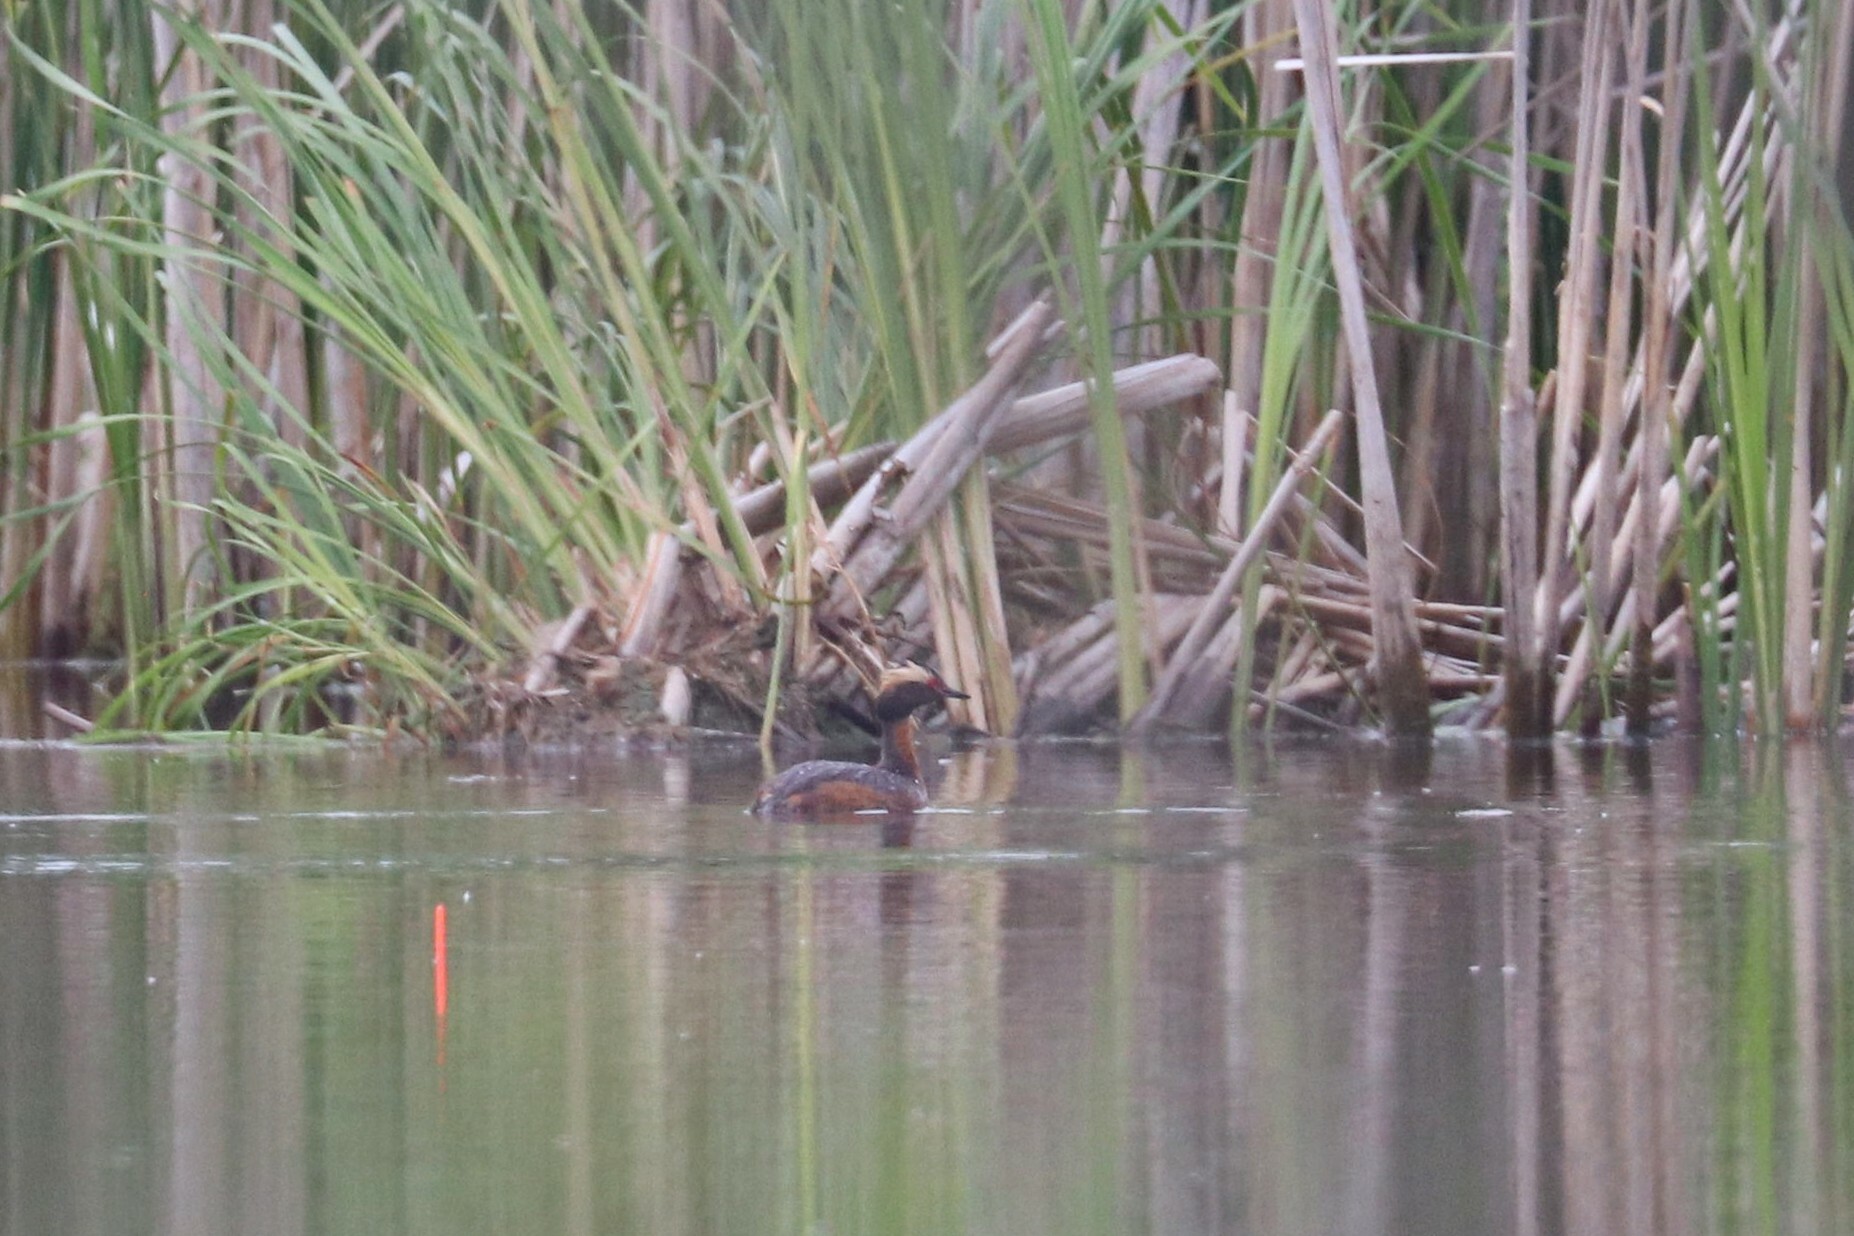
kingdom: Animalia
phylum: Chordata
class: Aves
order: Podicipediformes
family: Podicipedidae
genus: Podiceps
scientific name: Podiceps auritus
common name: Horned grebe
